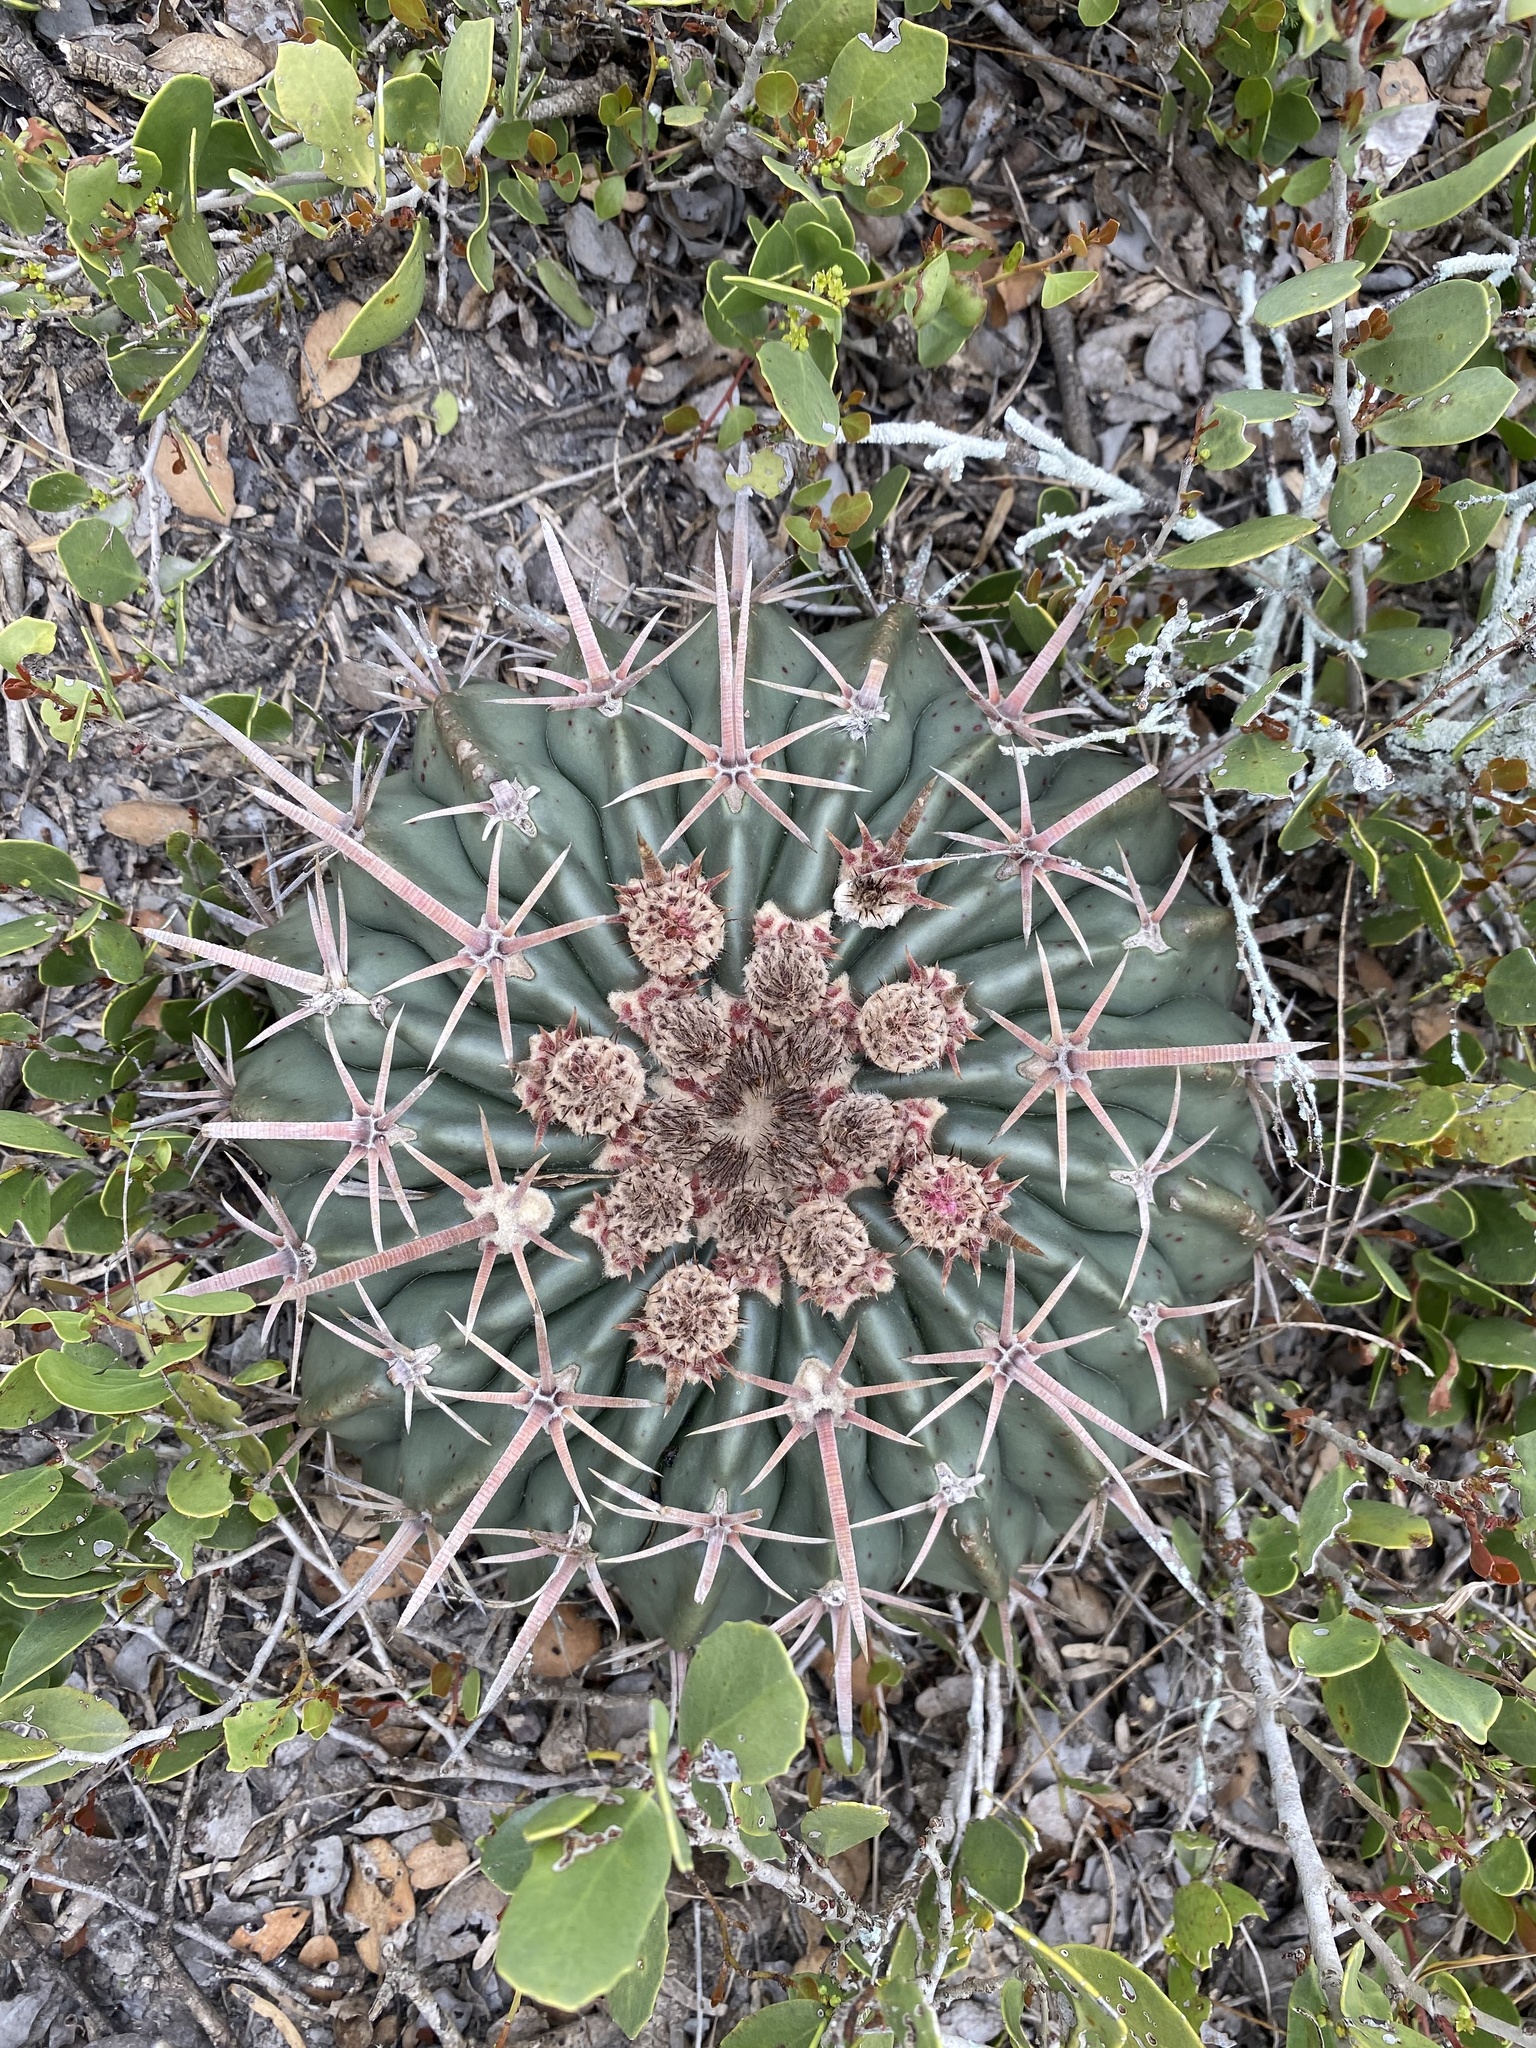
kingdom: Plantae
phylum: Tracheophyta
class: Magnoliopsida
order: Caryophyllales
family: Cactaceae
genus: Echinocactus
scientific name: Echinocactus texensis
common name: Devil's pincushion
